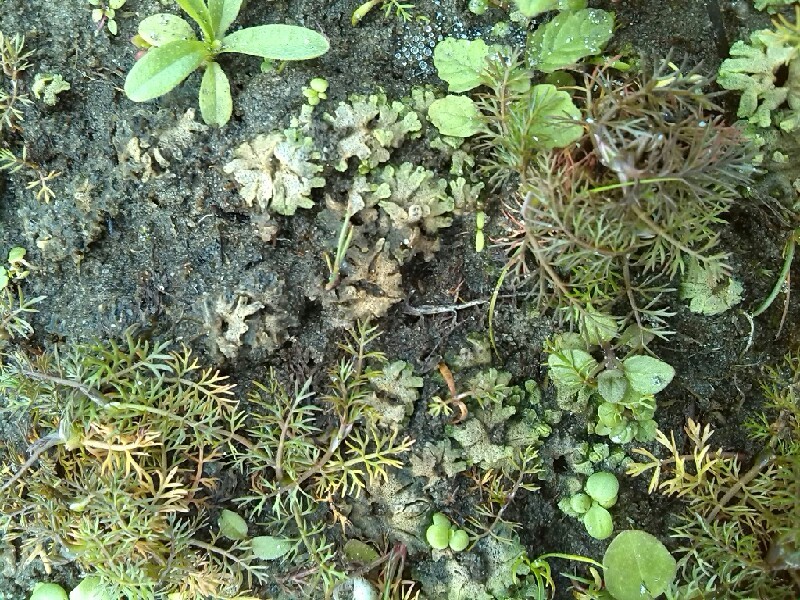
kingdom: Plantae
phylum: Marchantiophyta
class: Marchantiopsida
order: Marchantiales
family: Ricciaceae
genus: Riccia
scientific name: Riccia cavernosa
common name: Cavernous crystalwort
